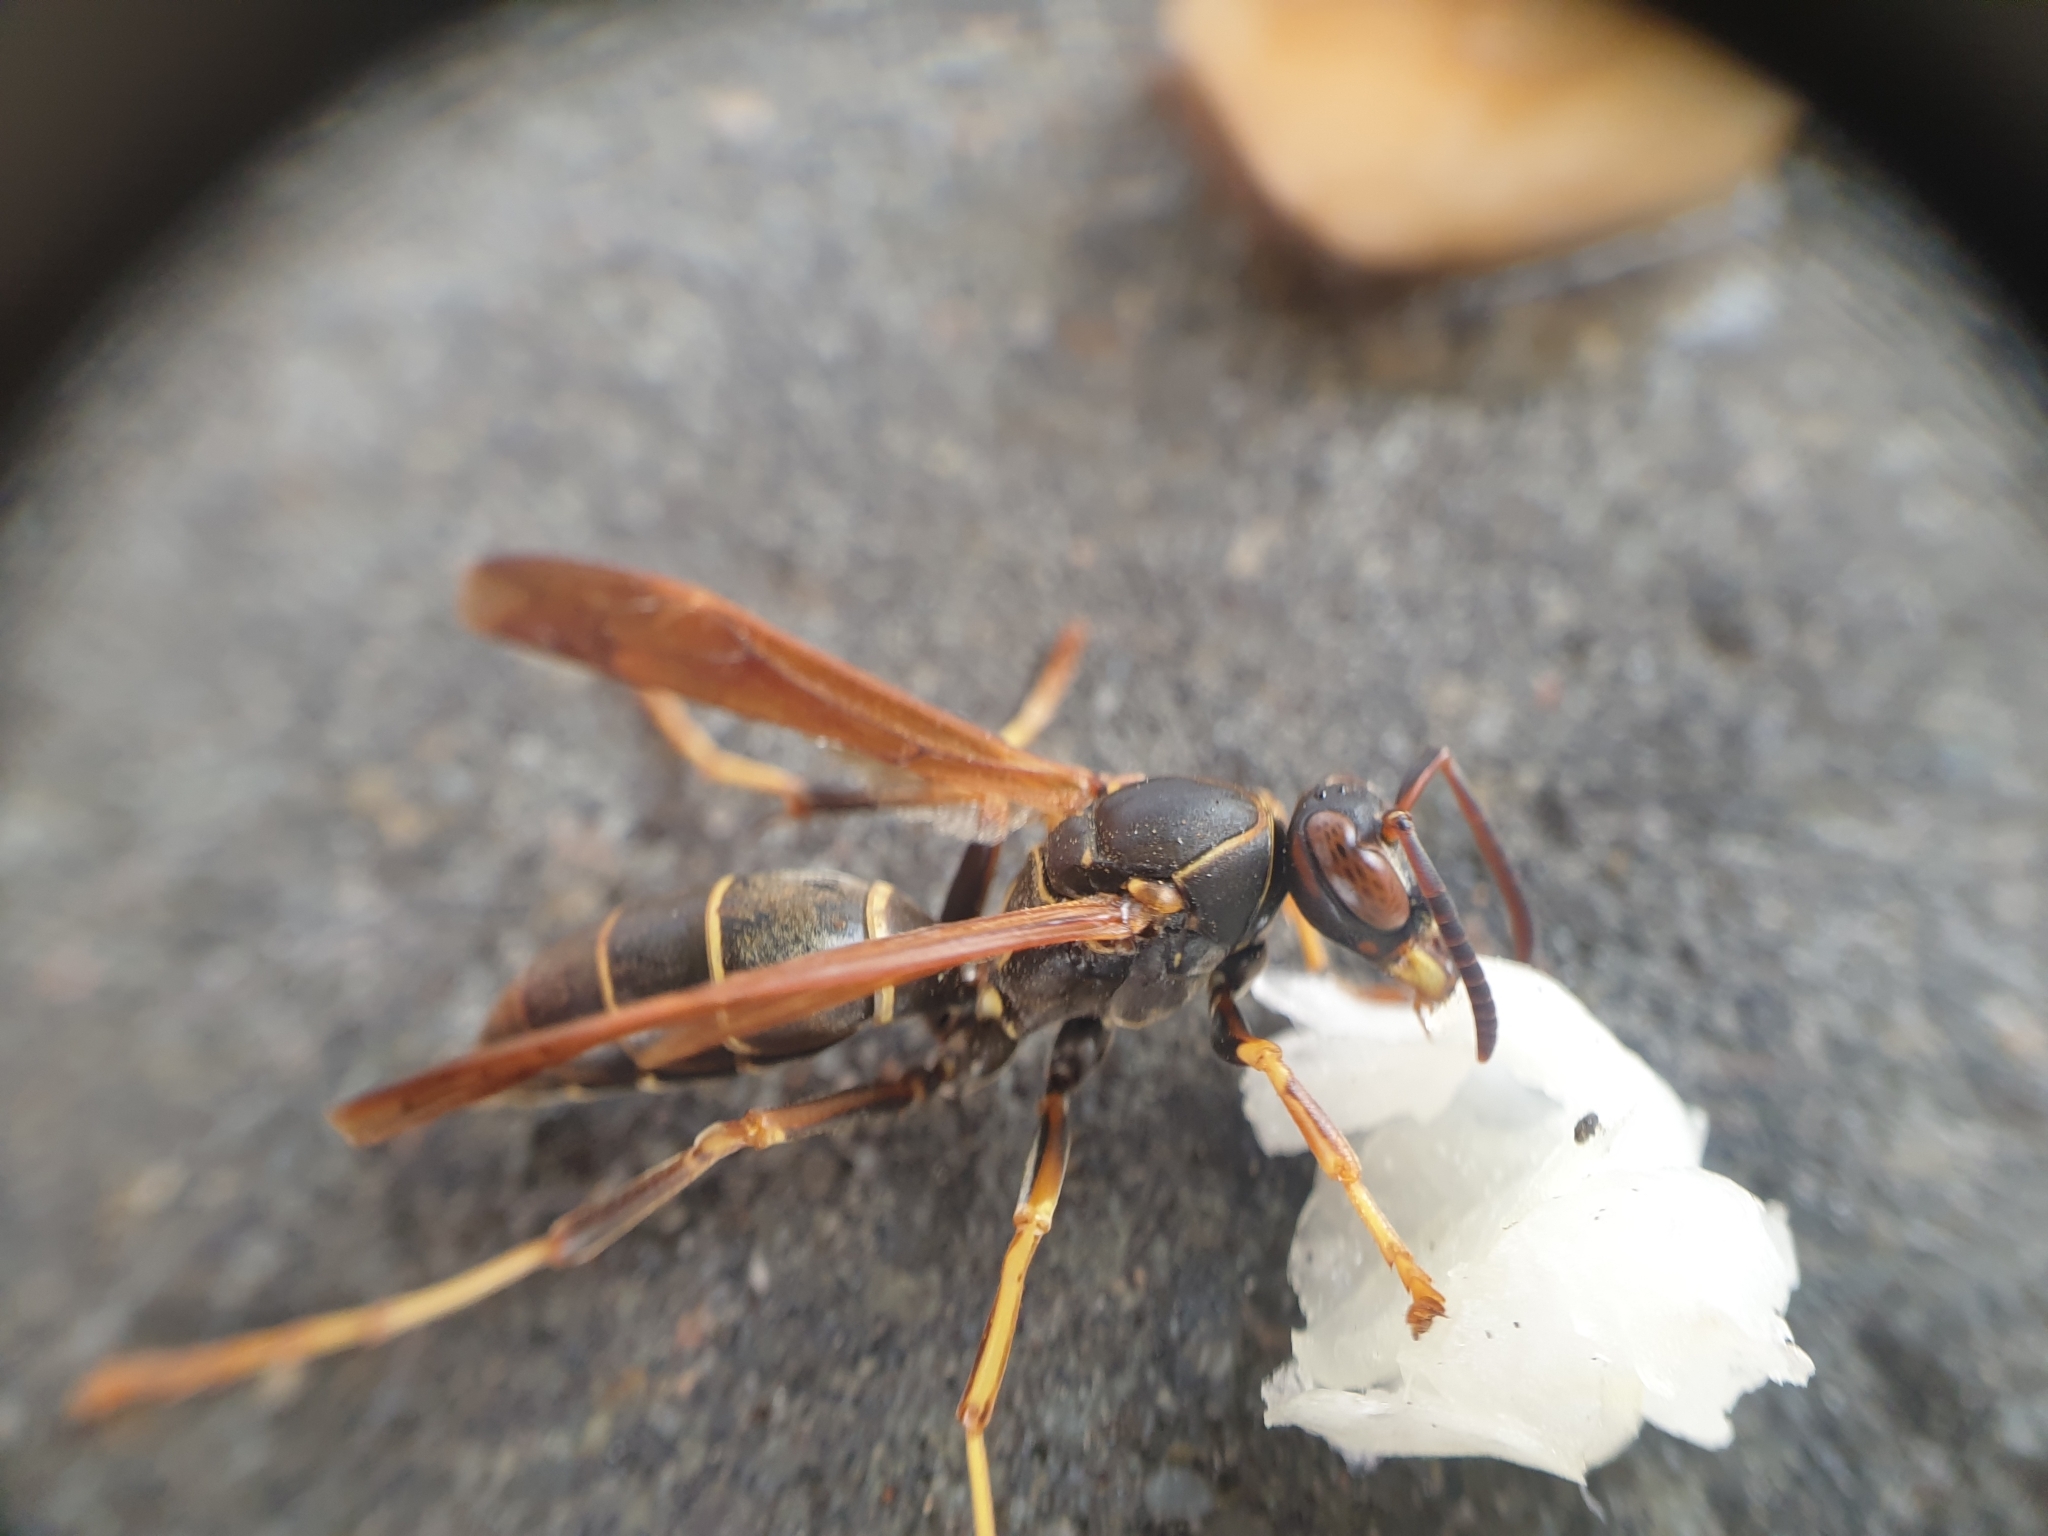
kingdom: Animalia
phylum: Arthropoda
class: Insecta
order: Hymenoptera
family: Eumenidae
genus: Polistes
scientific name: Polistes fuscatus
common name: Dark paper wasp
